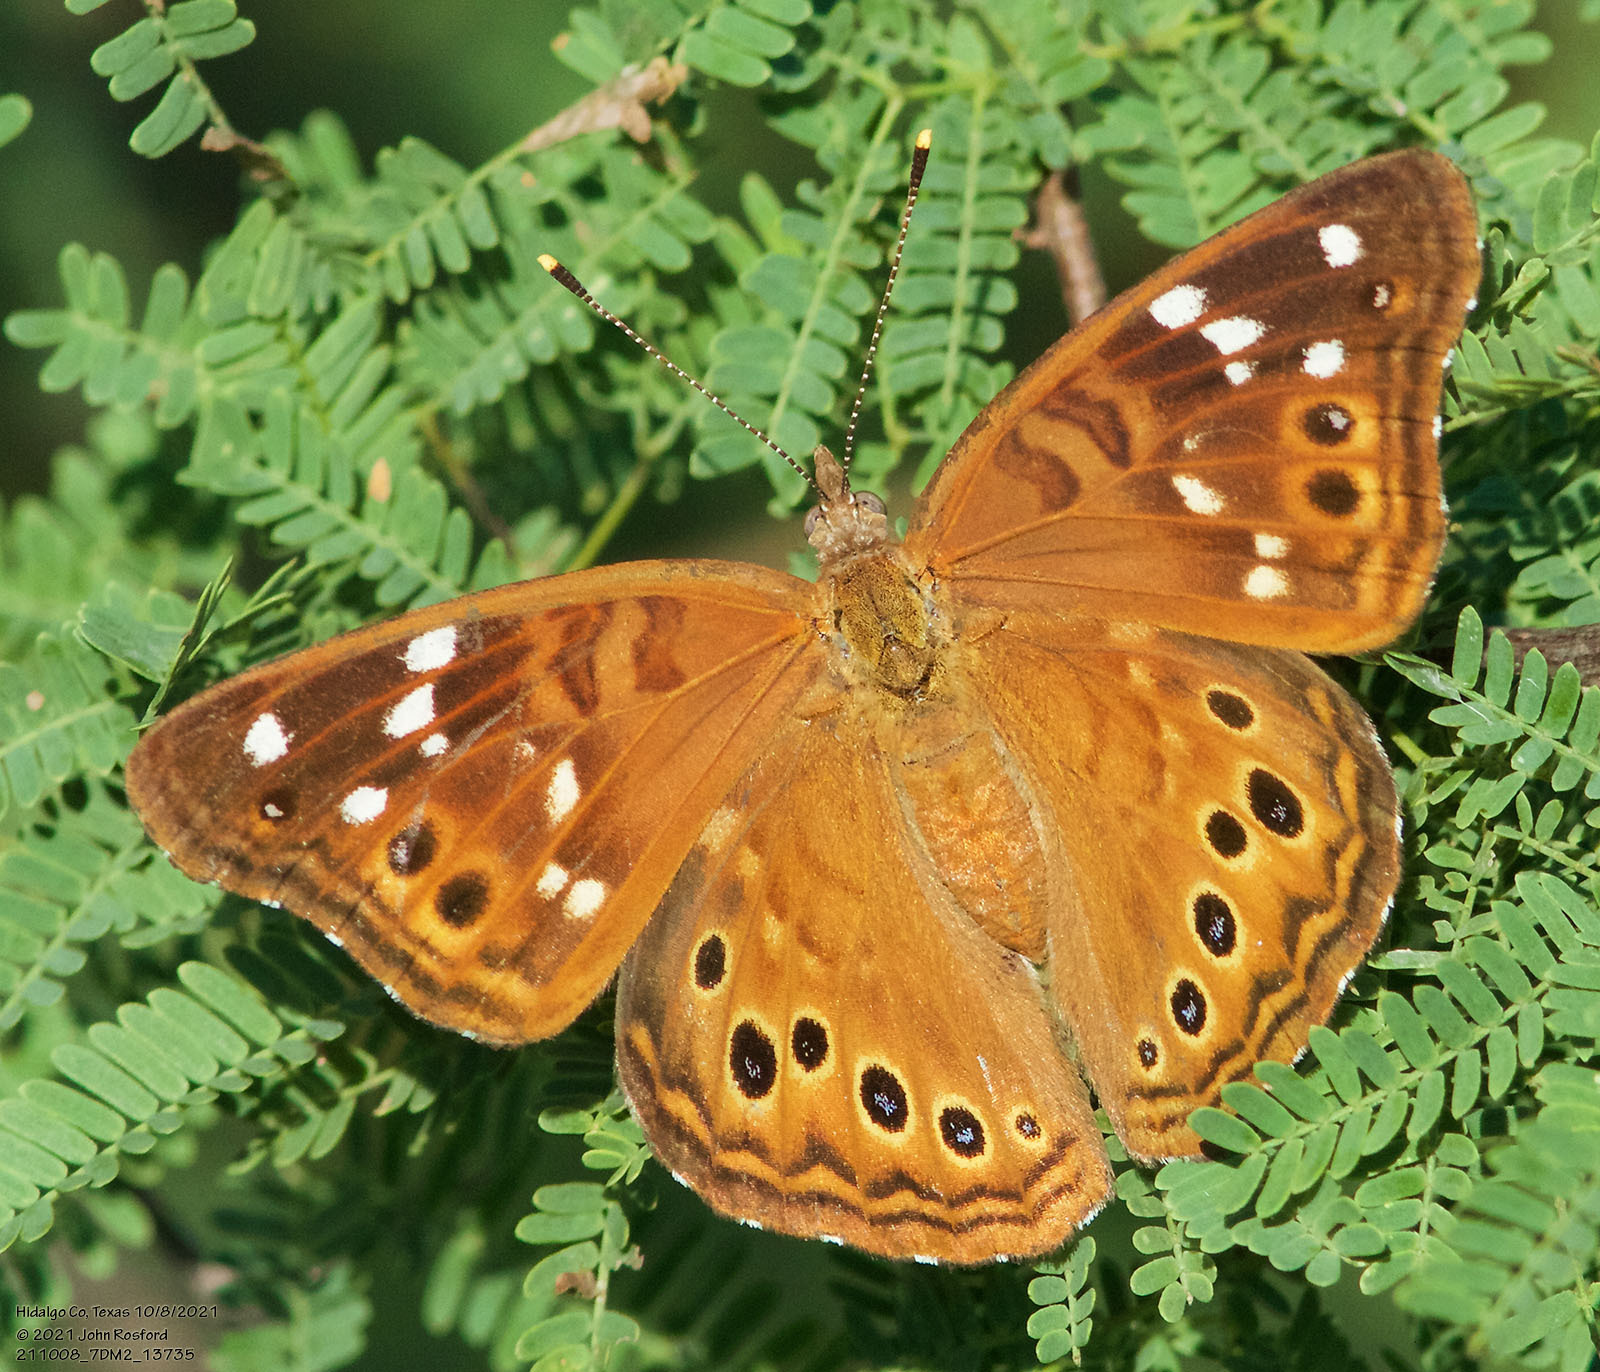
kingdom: Animalia
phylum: Arthropoda
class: Insecta
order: Lepidoptera
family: Nymphalidae
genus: Asterocampa
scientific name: Asterocampa leilia
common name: Empress leilia
